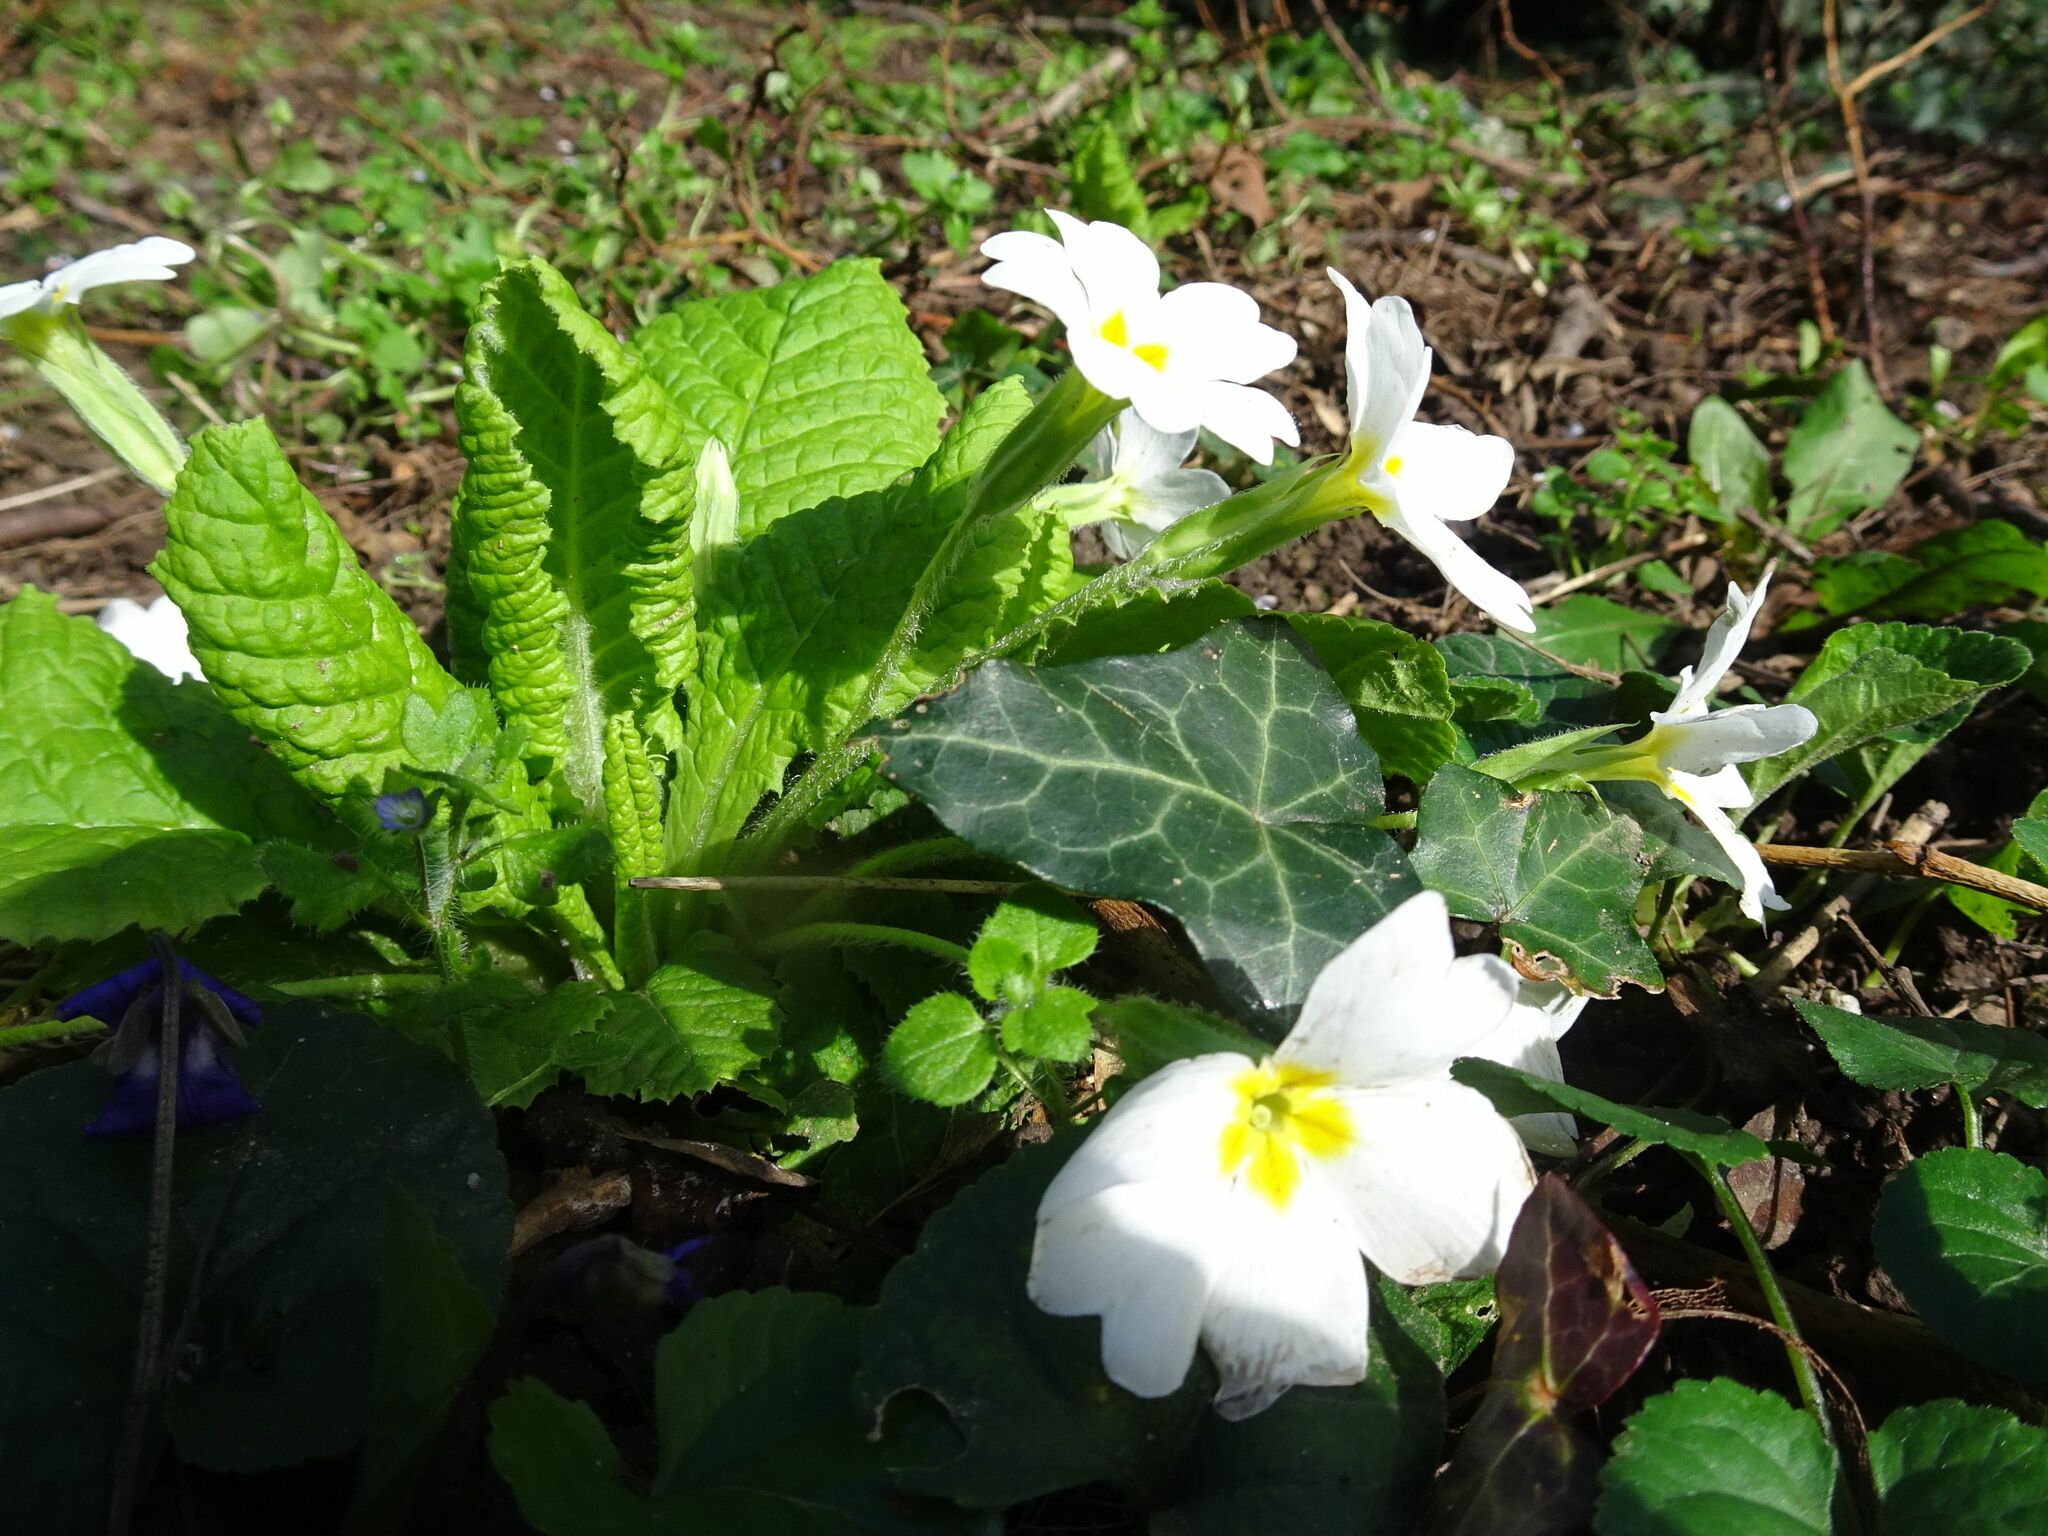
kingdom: Plantae
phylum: Tracheophyta
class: Magnoliopsida
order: Ericales
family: Primulaceae
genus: Primula
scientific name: Primula vulgaris
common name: Primrose
